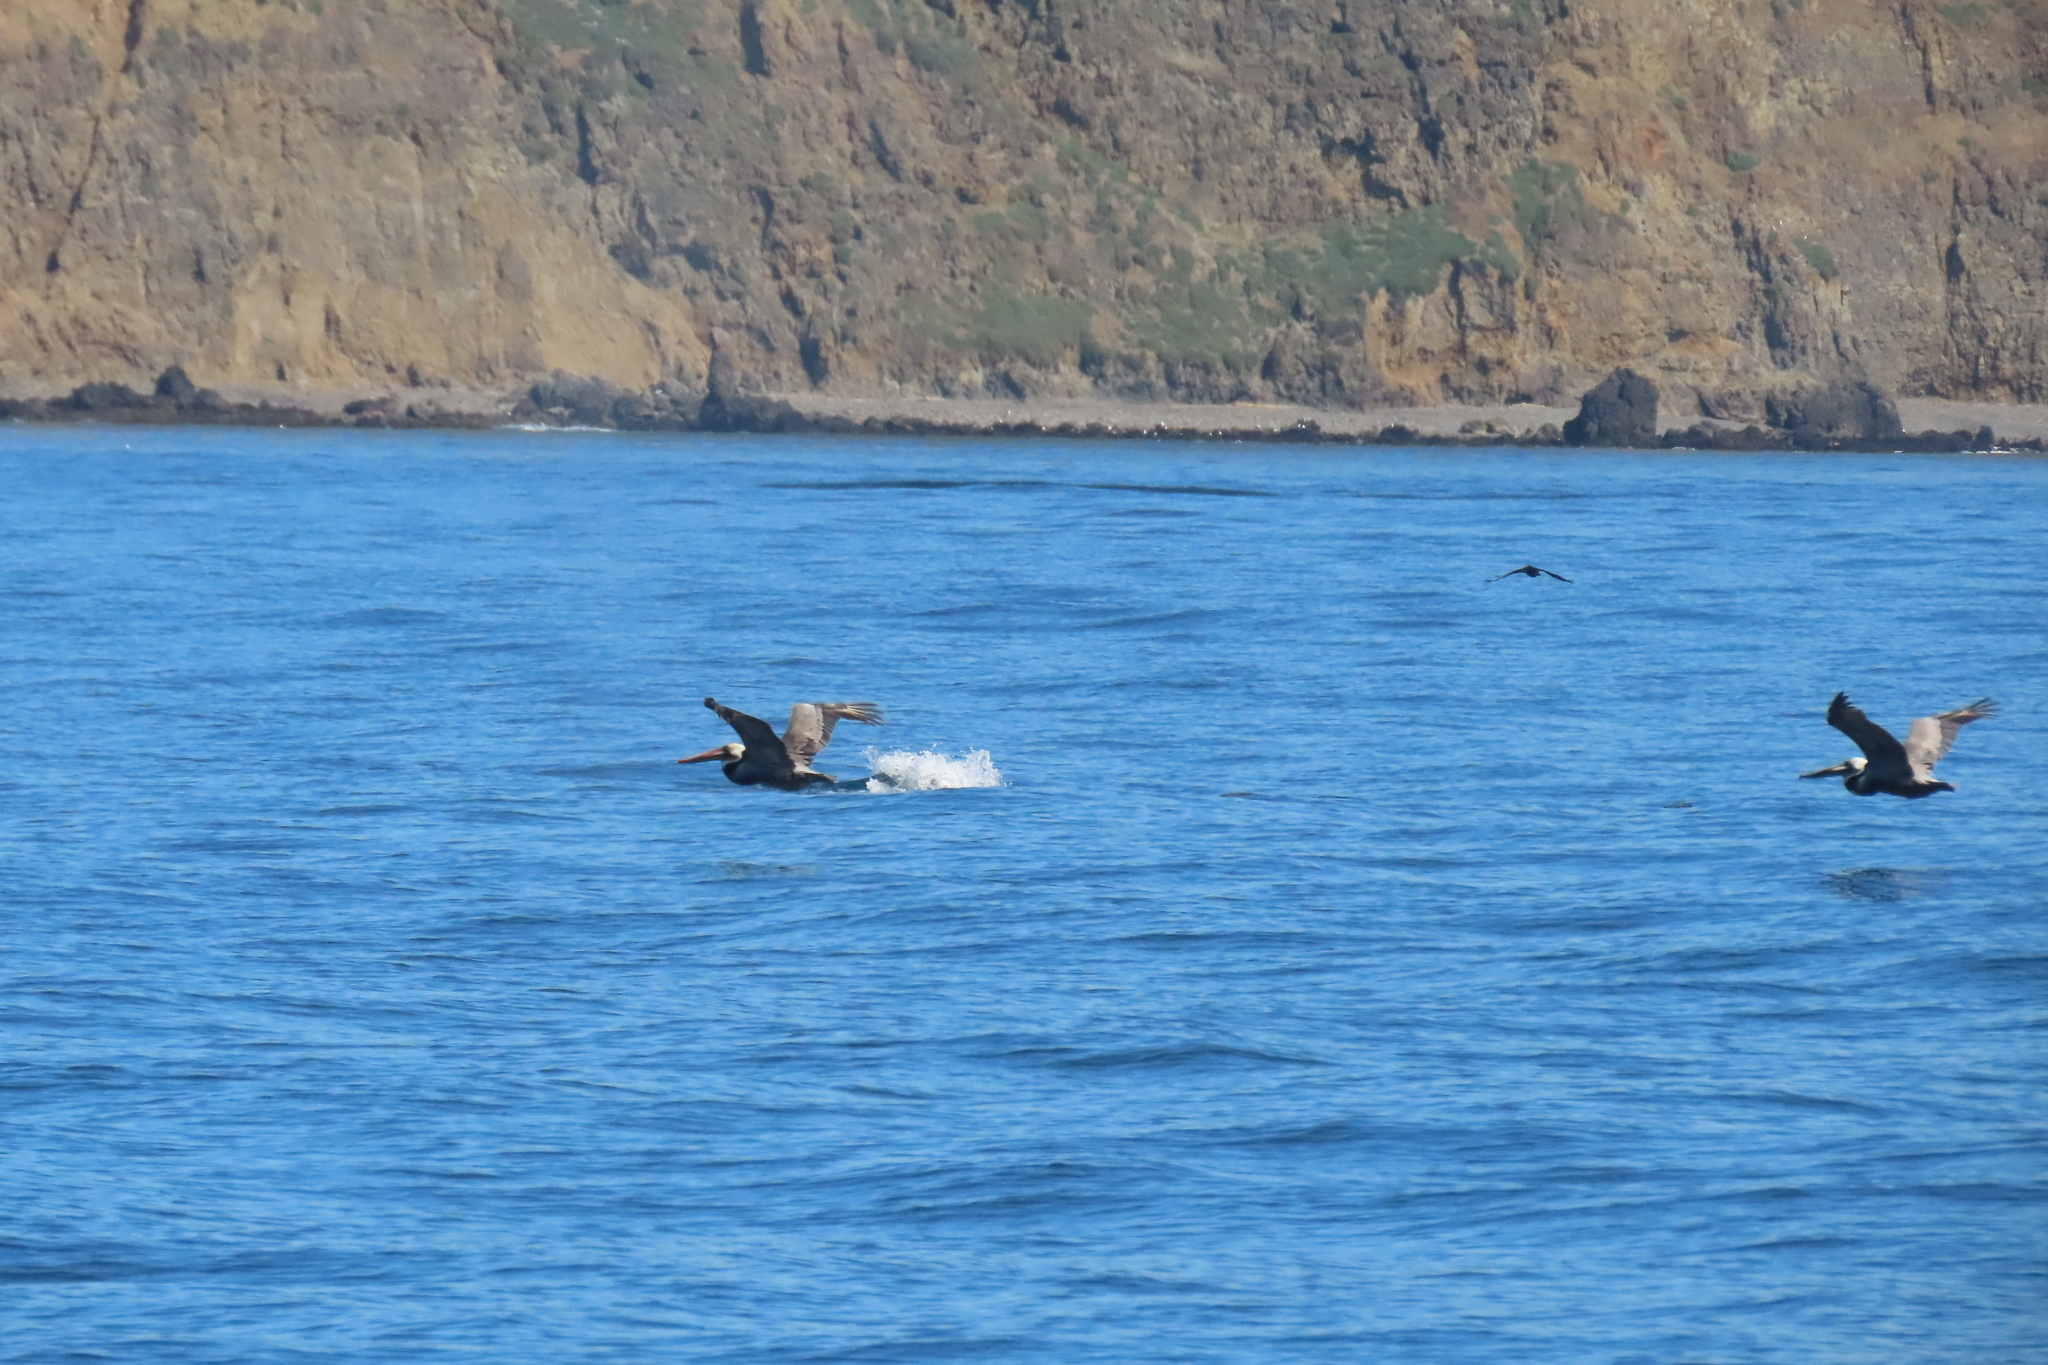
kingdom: Animalia
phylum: Chordata
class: Aves
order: Pelecaniformes
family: Pelecanidae
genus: Pelecanus
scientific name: Pelecanus occidentalis
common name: Brown pelican
